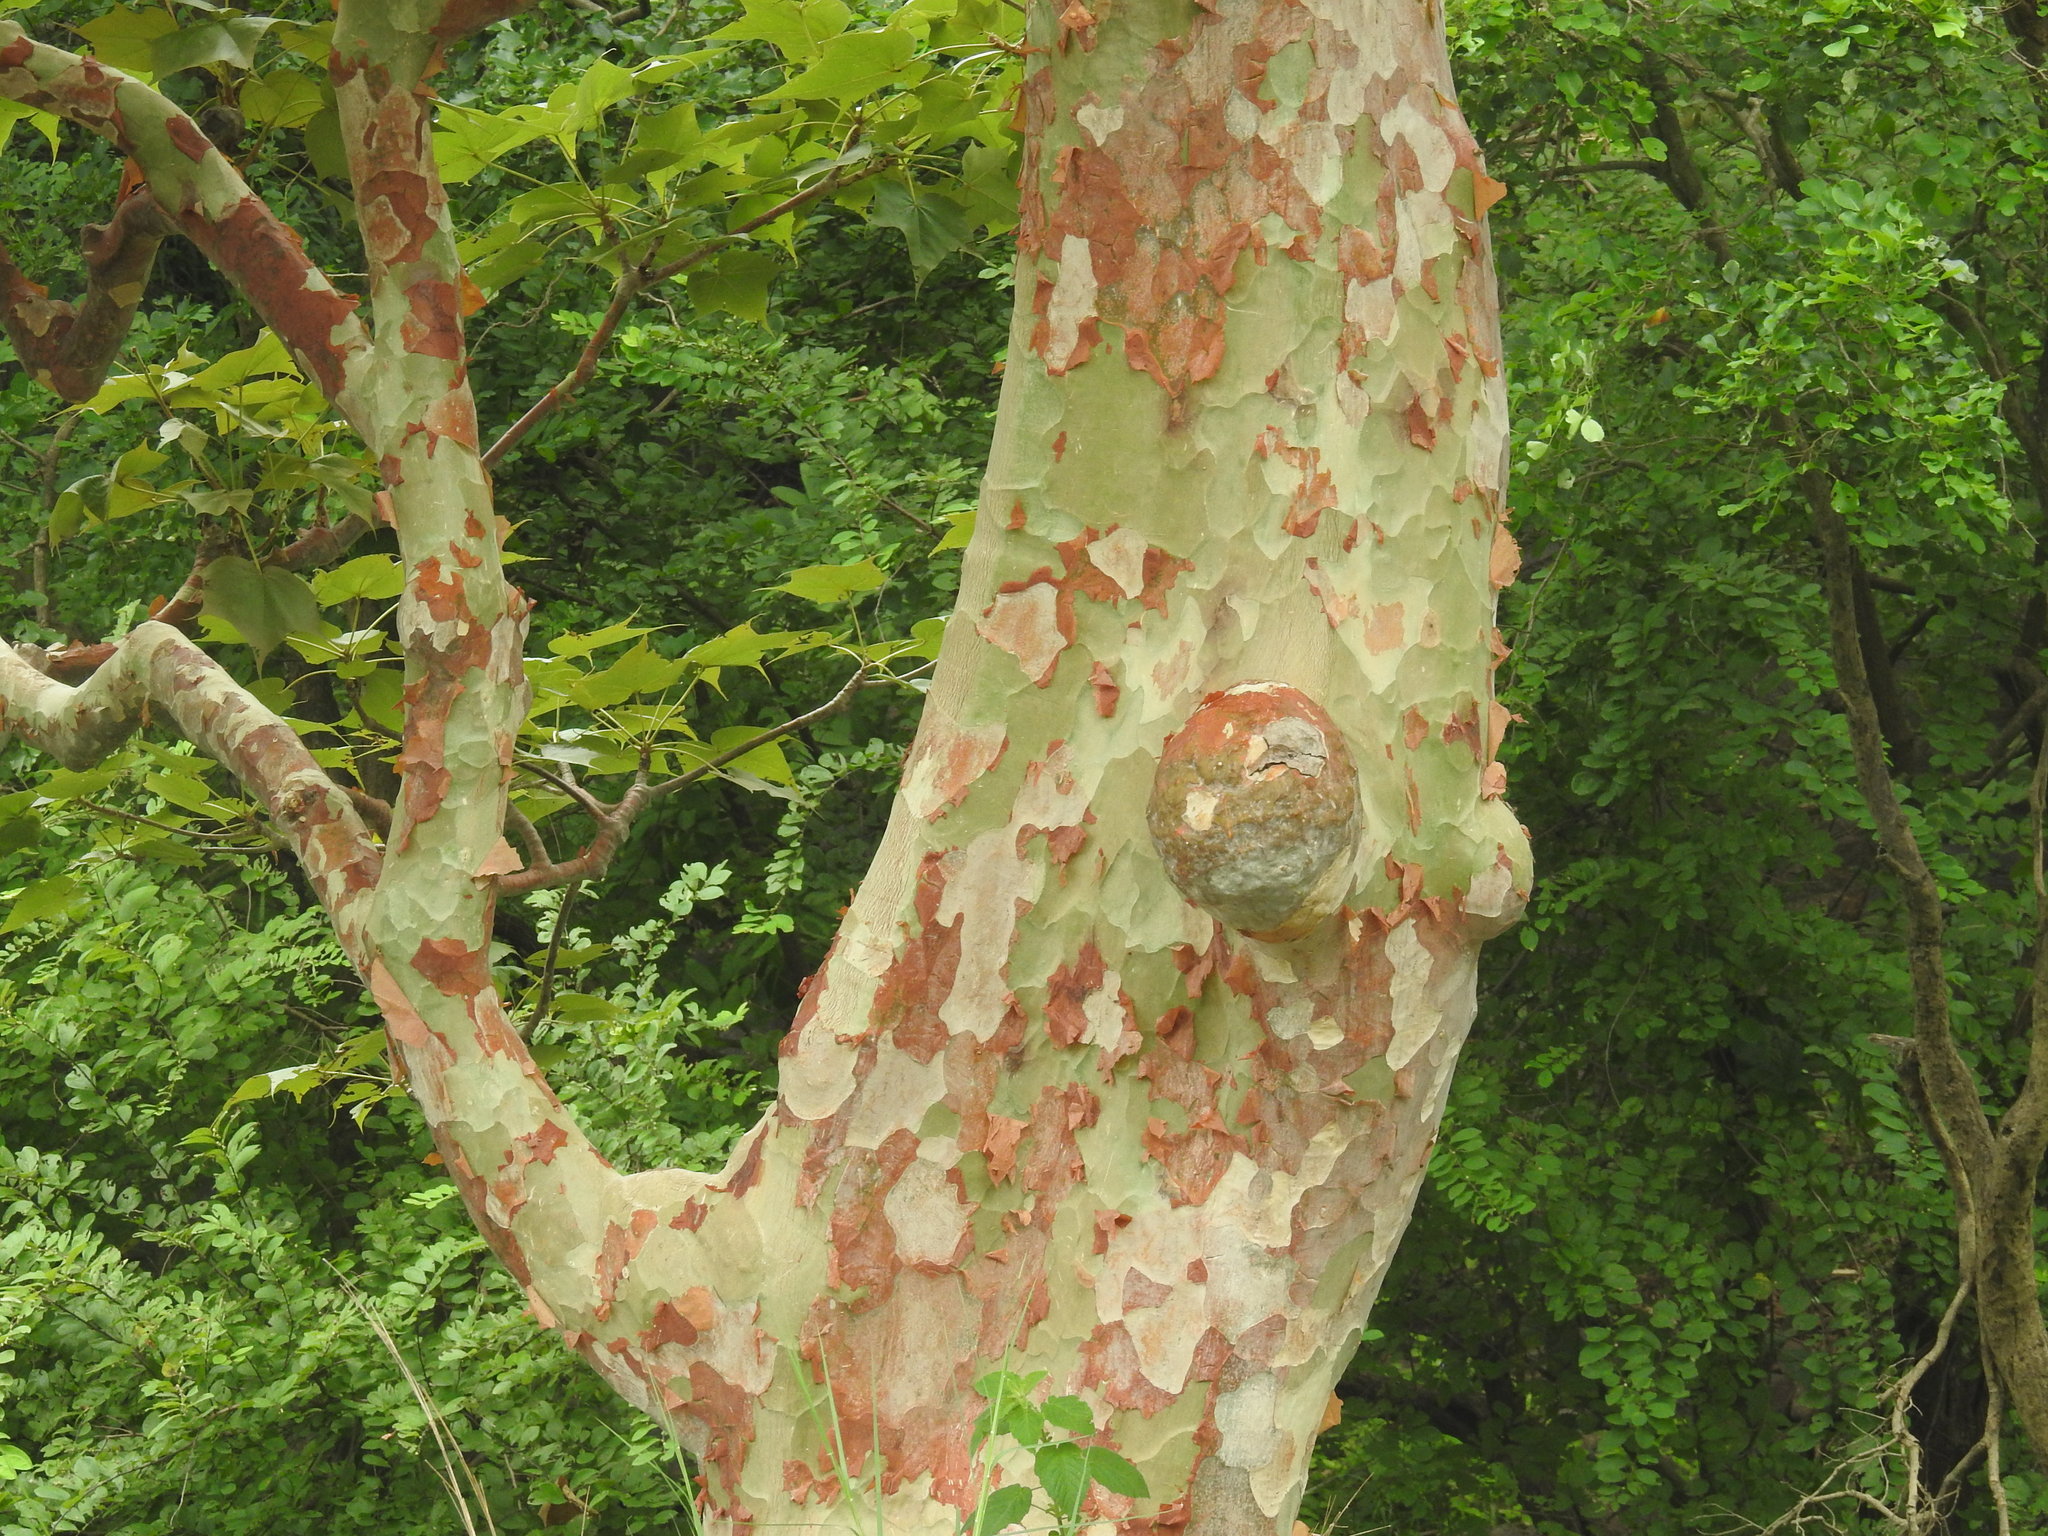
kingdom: Plantae
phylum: Tracheophyta
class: Magnoliopsida
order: Malvales
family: Malvaceae
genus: Sterculia
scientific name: Sterculia urens
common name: Indian-tragacanth
